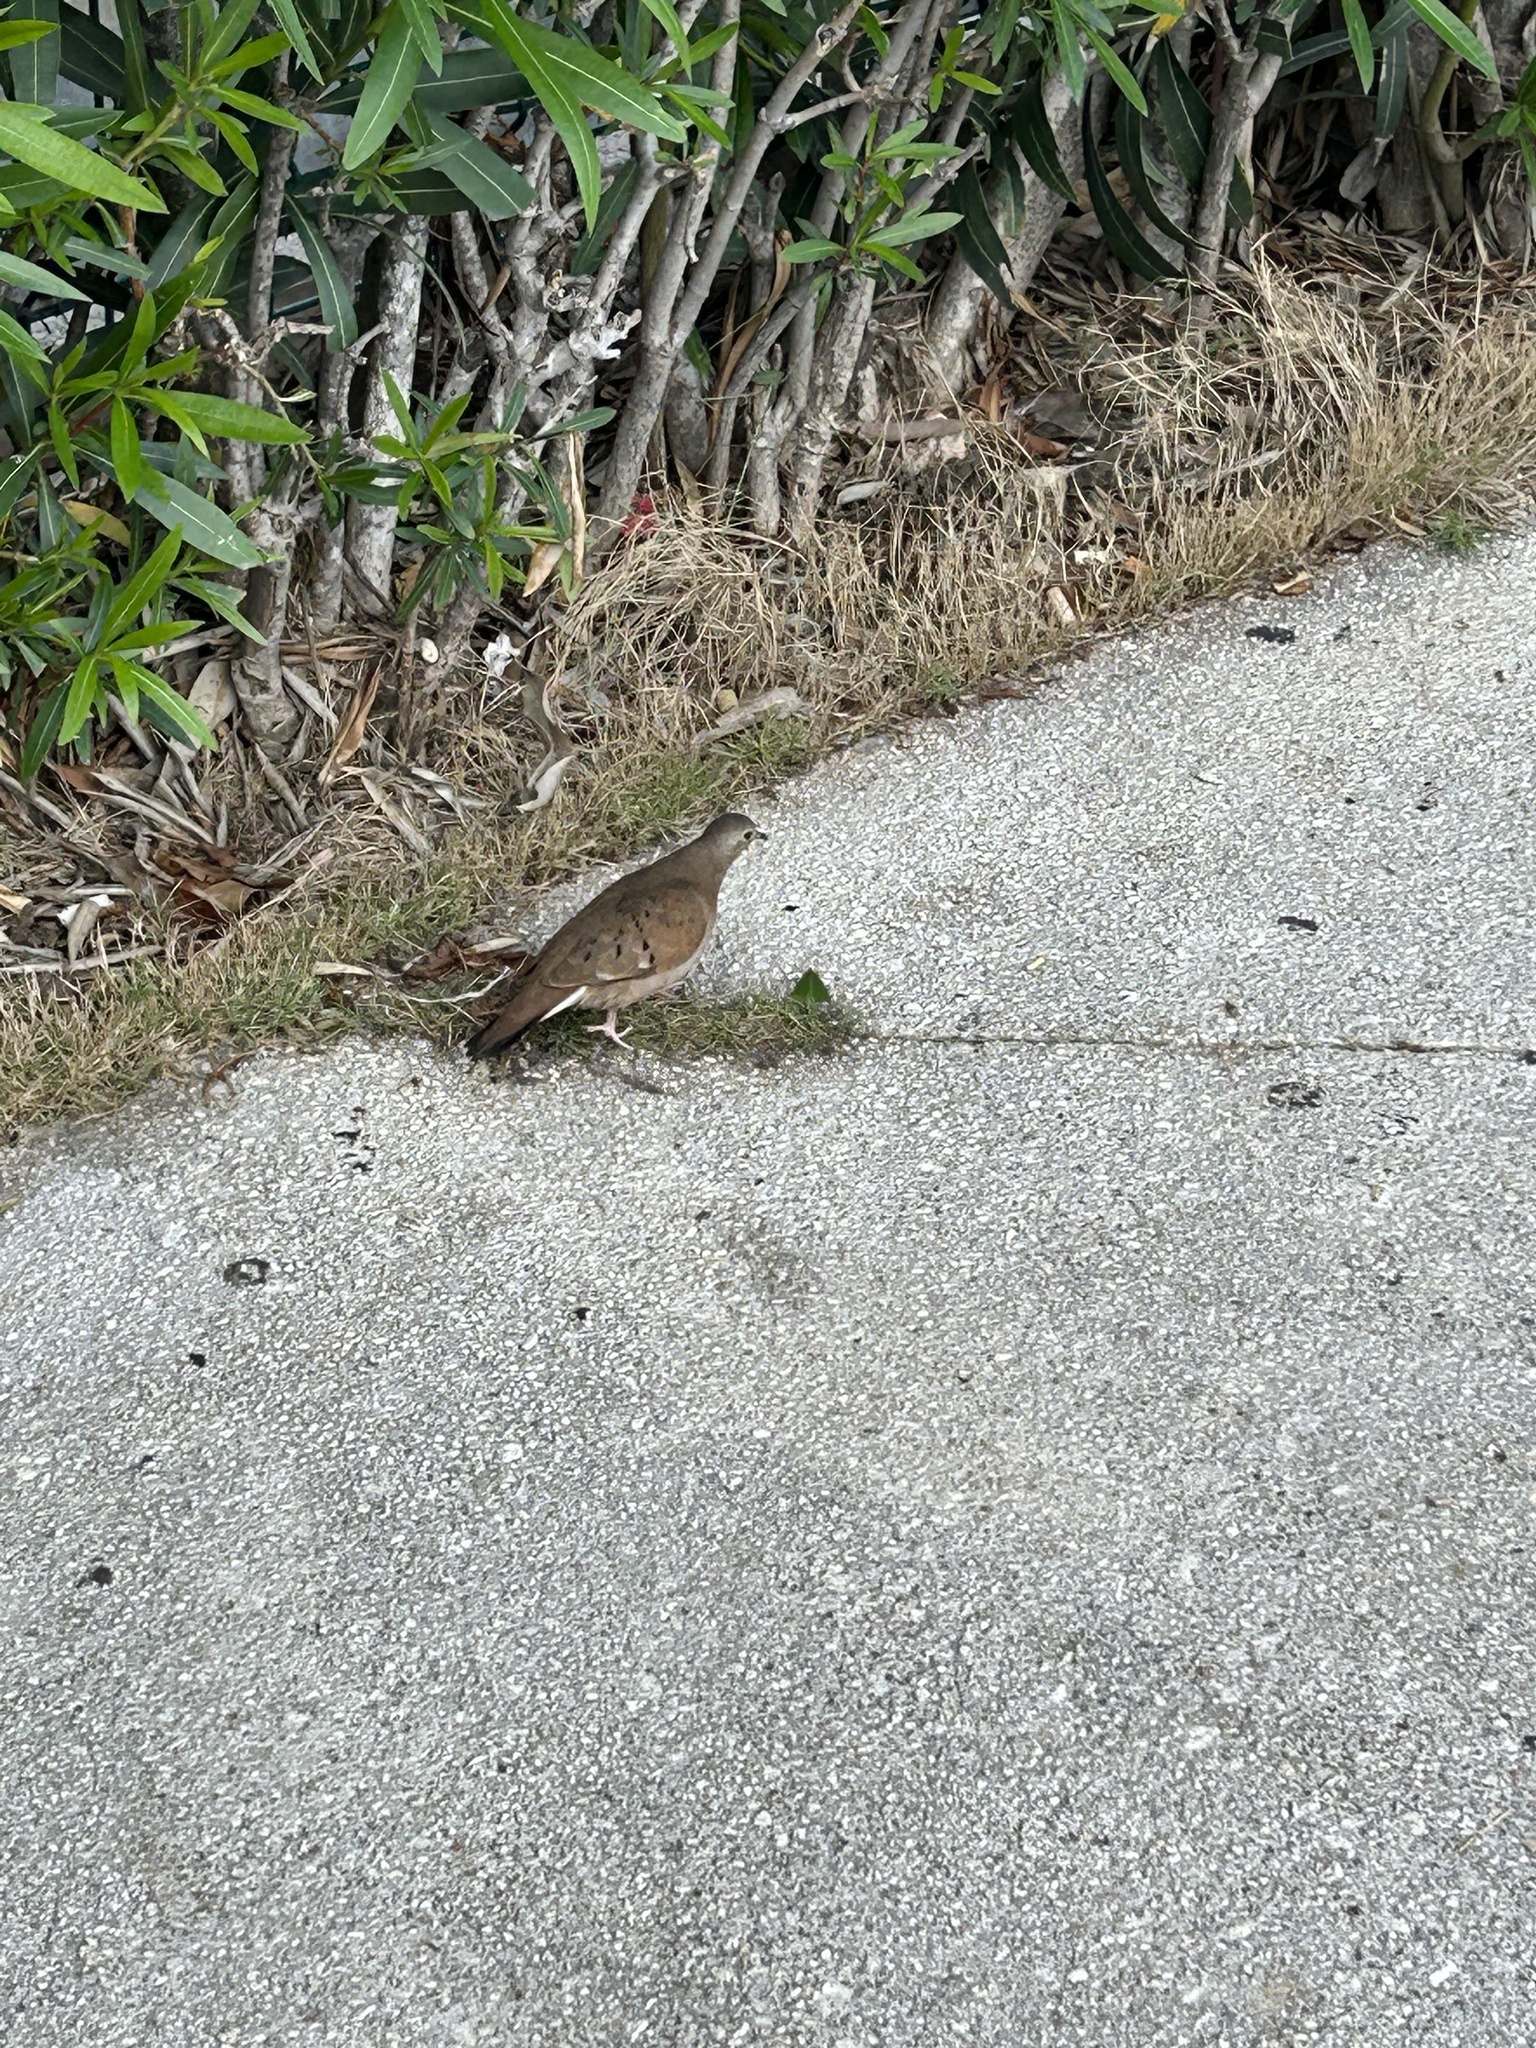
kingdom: Animalia
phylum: Chordata
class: Aves
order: Columbiformes
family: Columbidae
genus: Columbina
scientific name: Columbina talpacoti
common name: Ruddy ground dove
